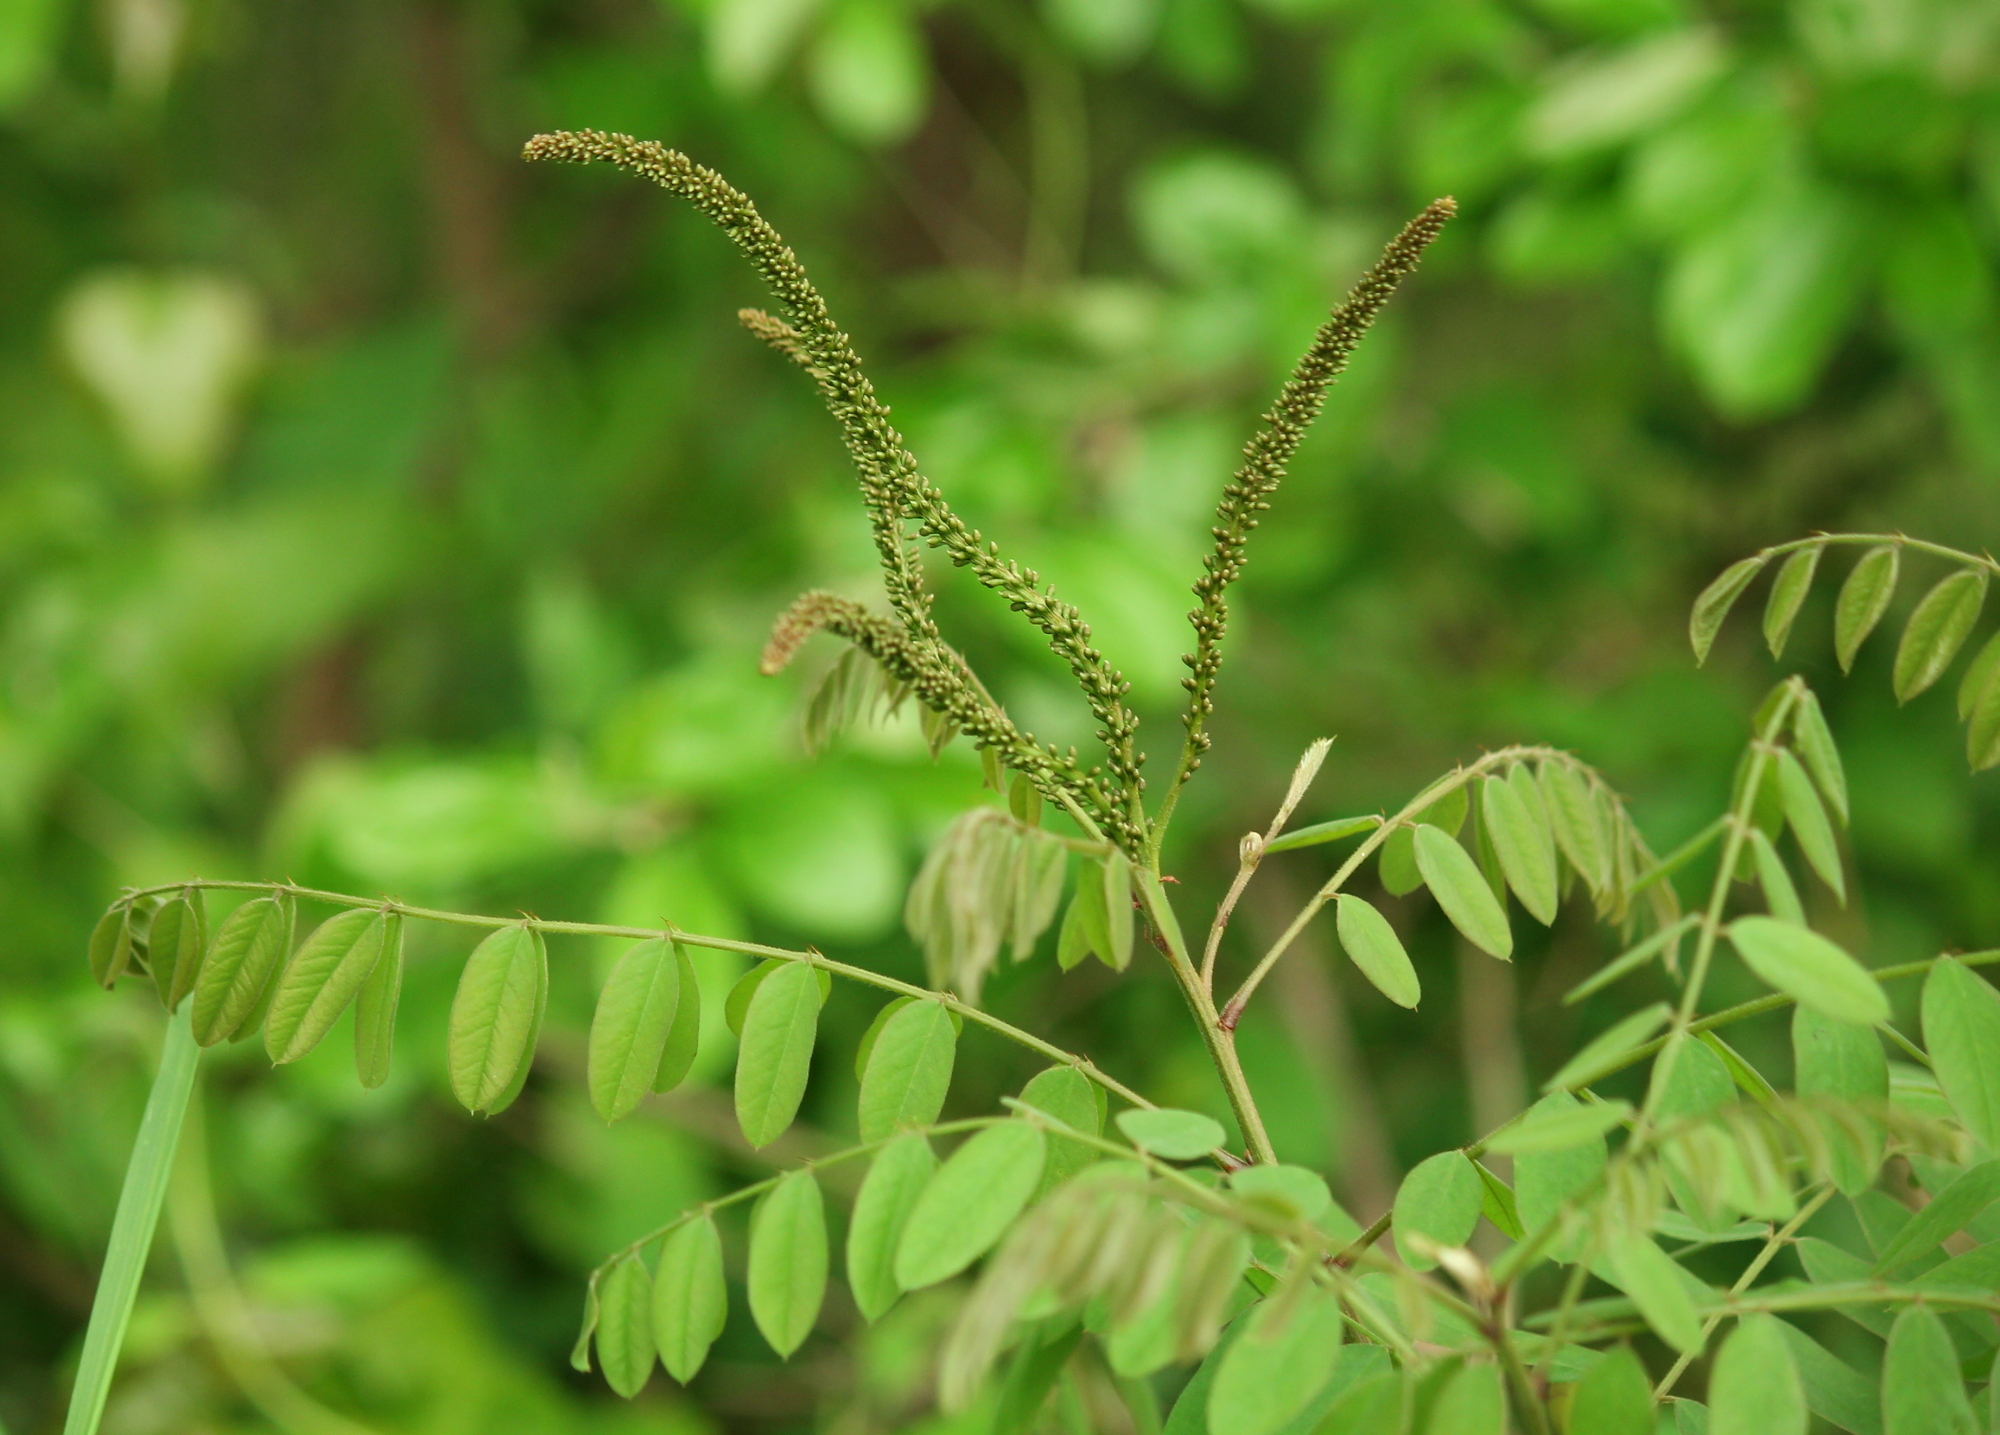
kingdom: Plantae
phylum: Tracheophyta
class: Magnoliopsida
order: Fabales
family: Fabaceae
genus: Amorpha
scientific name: Amorpha fruticosa
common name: False indigo
